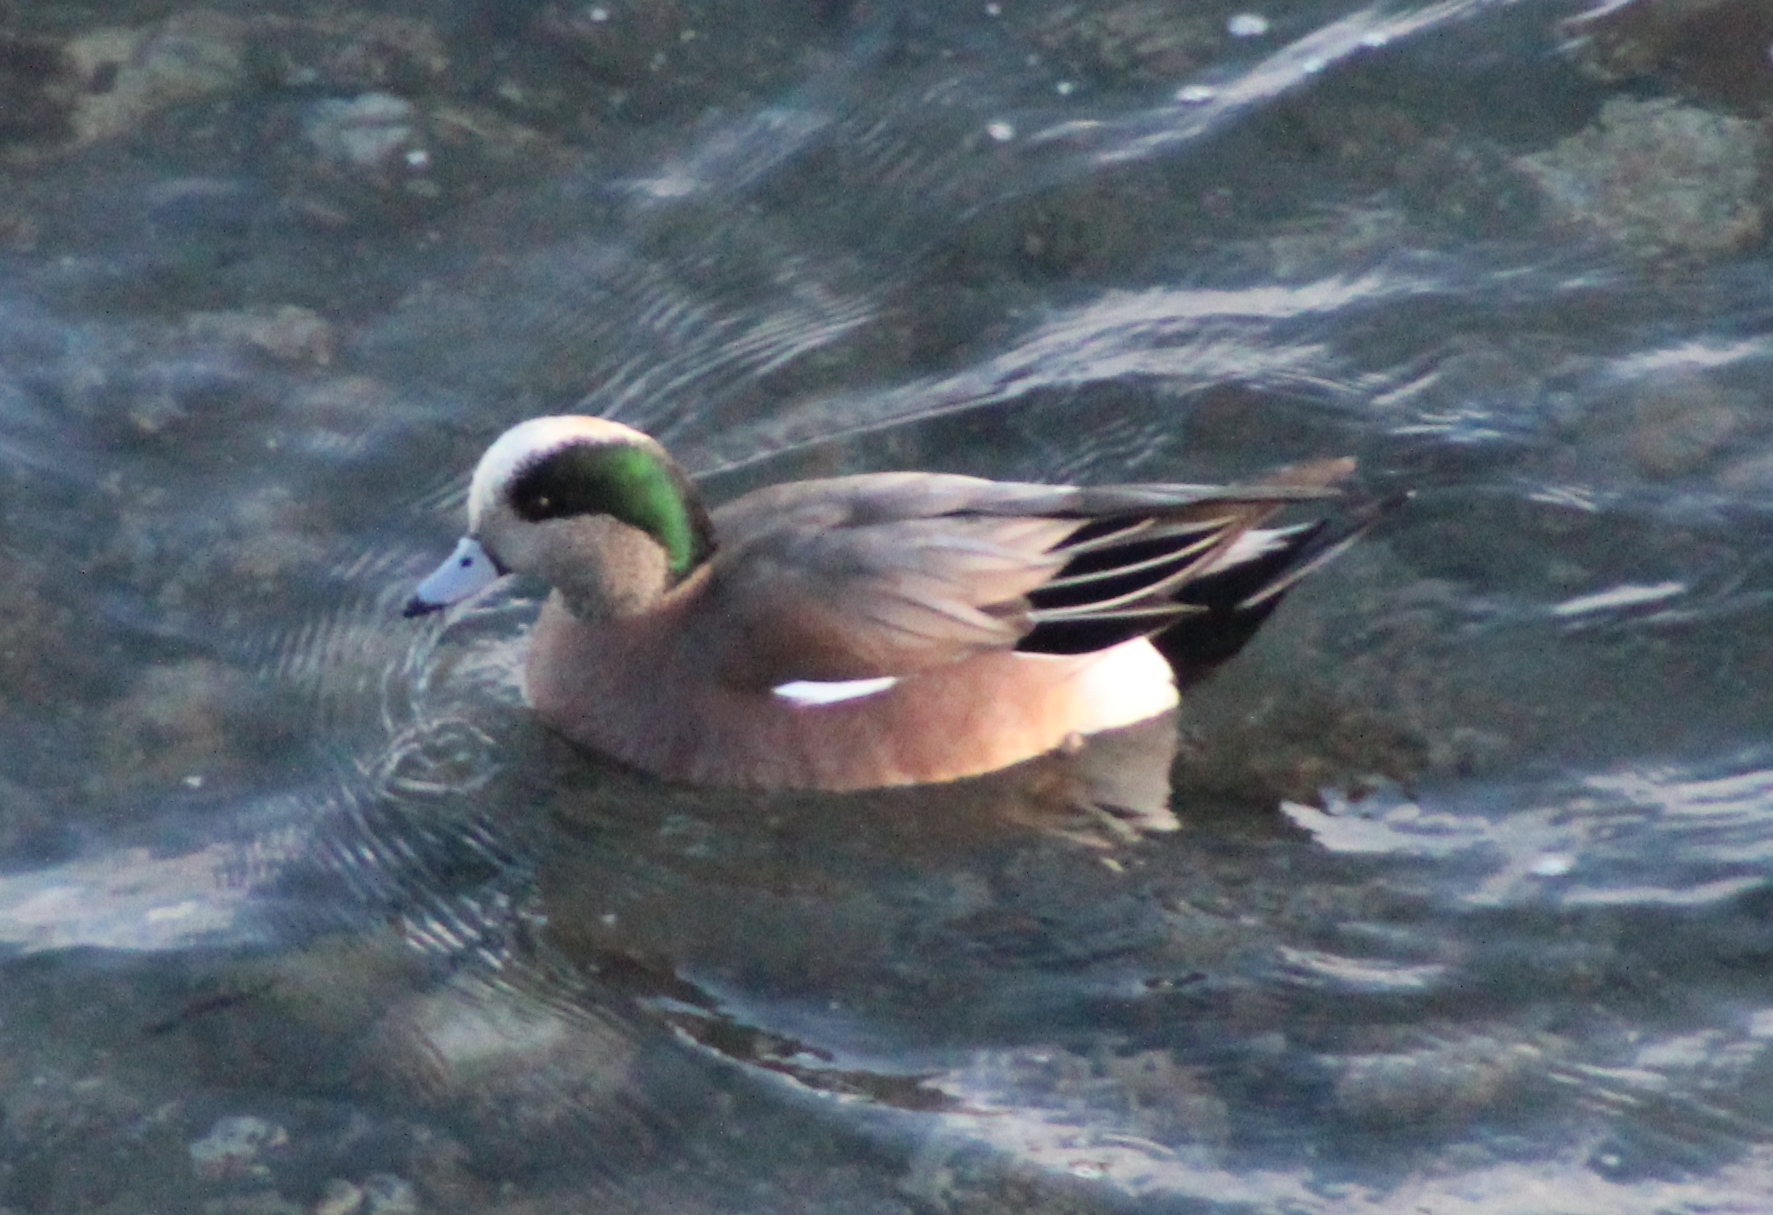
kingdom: Animalia
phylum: Chordata
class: Aves
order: Anseriformes
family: Anatidae
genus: Mareca
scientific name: Mareca americana
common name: American wigeon
